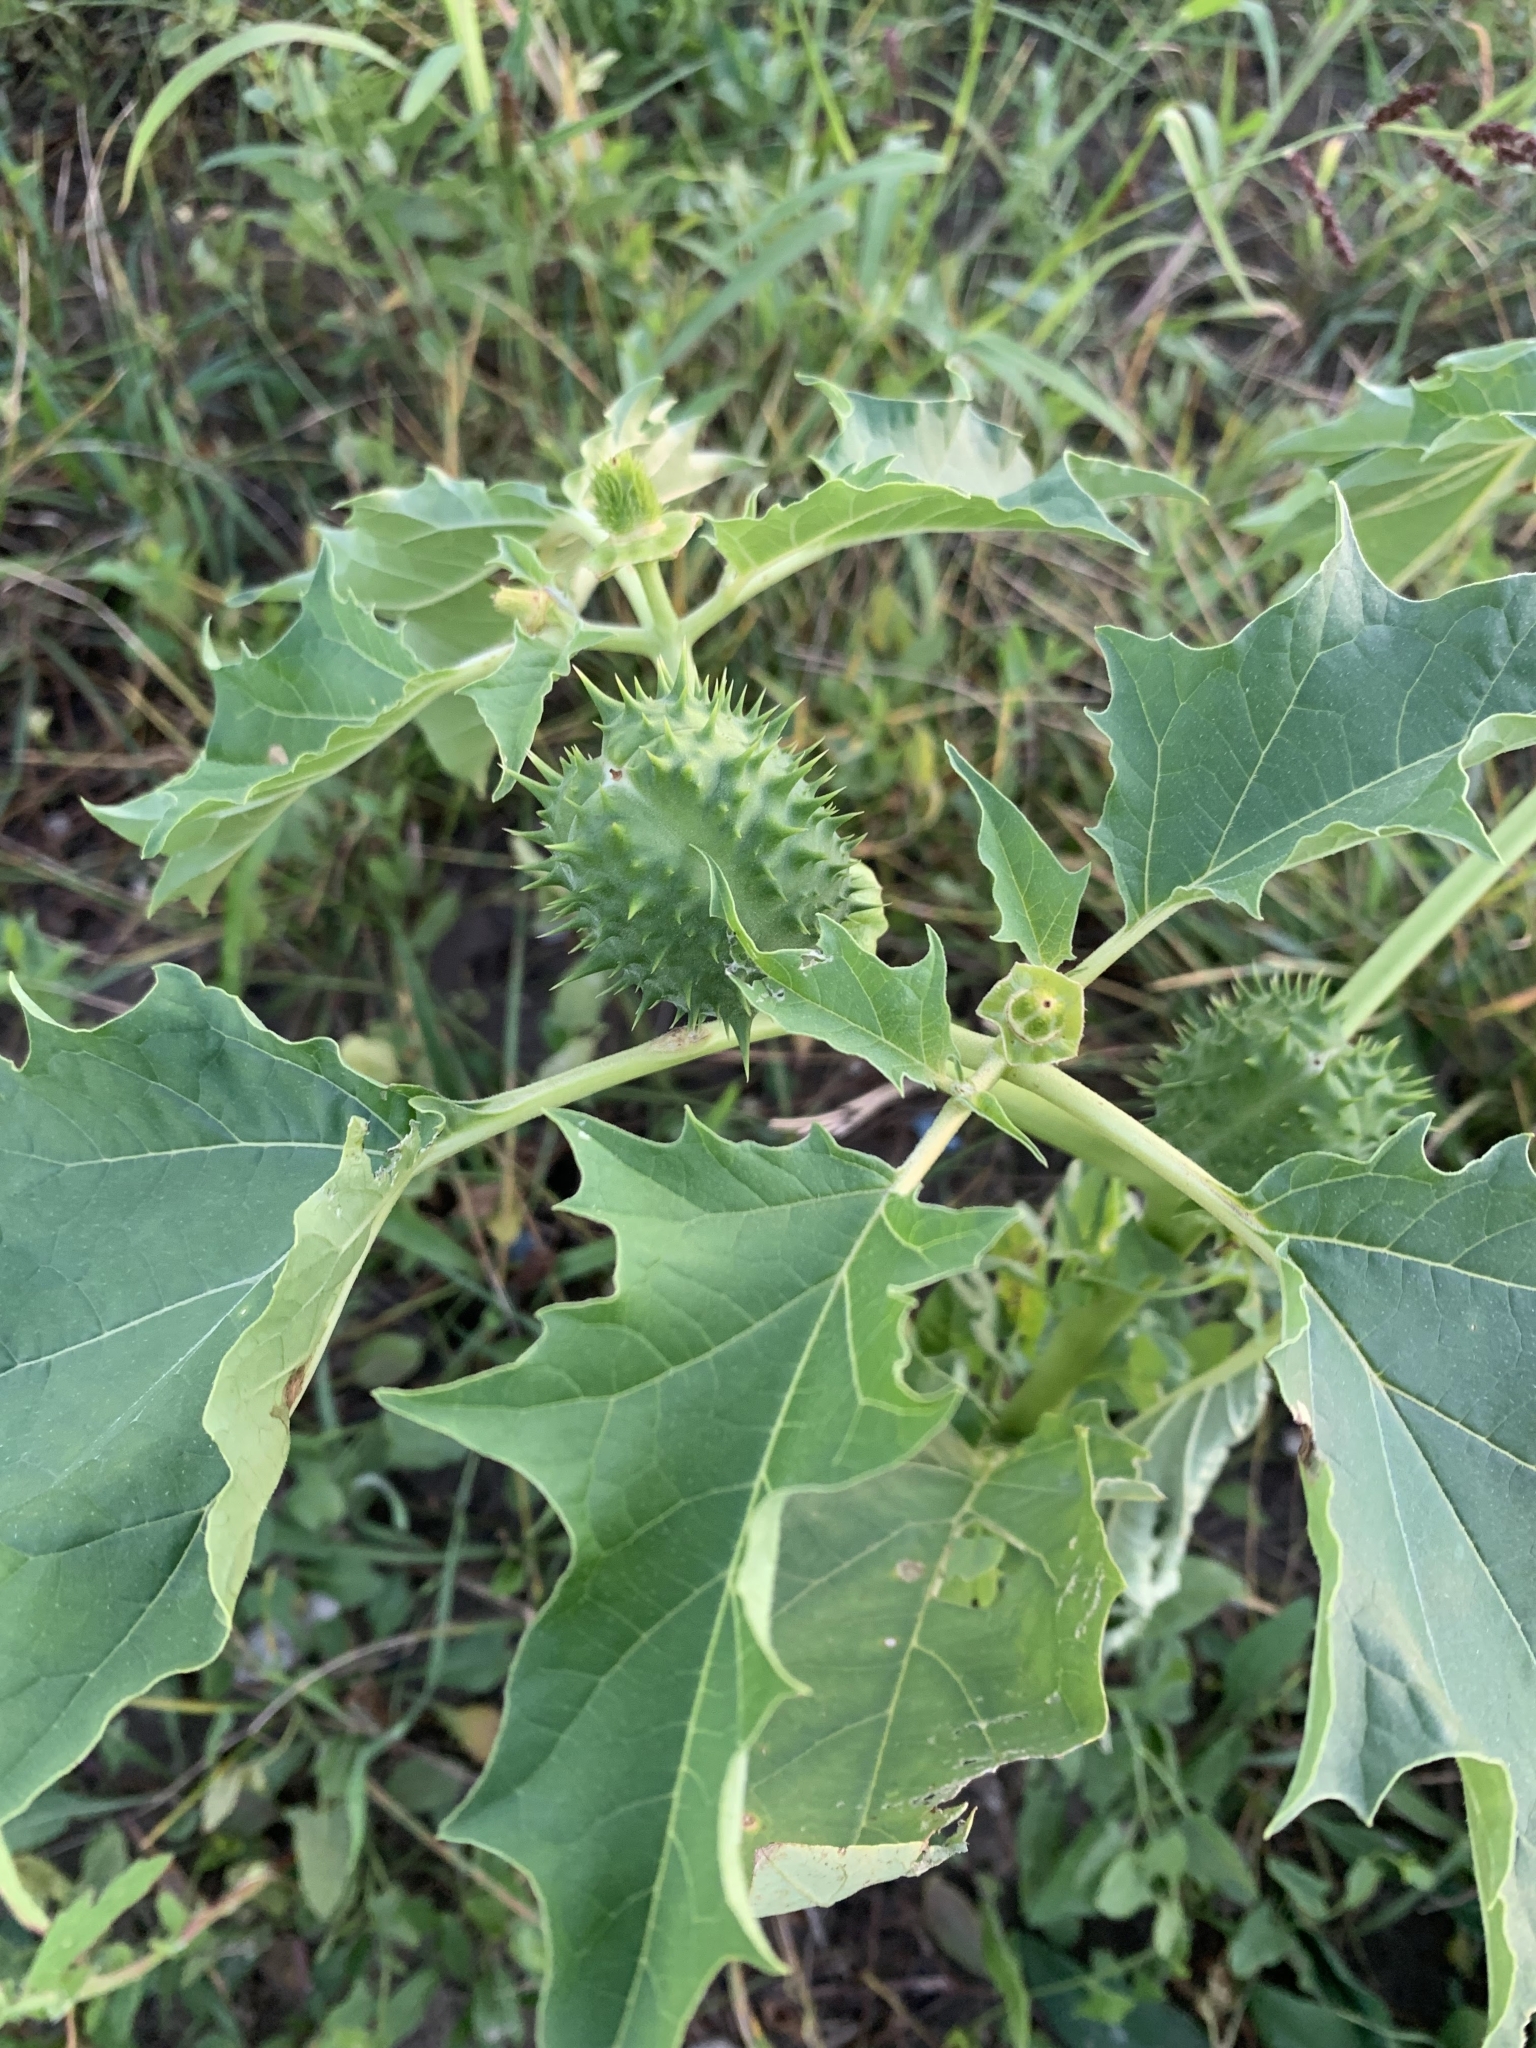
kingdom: Plantae
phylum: Tracheophyta
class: Magnoliopsida
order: Solanales
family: Solanaceae
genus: Datura
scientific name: Datura stramonium
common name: Thorn-apple
